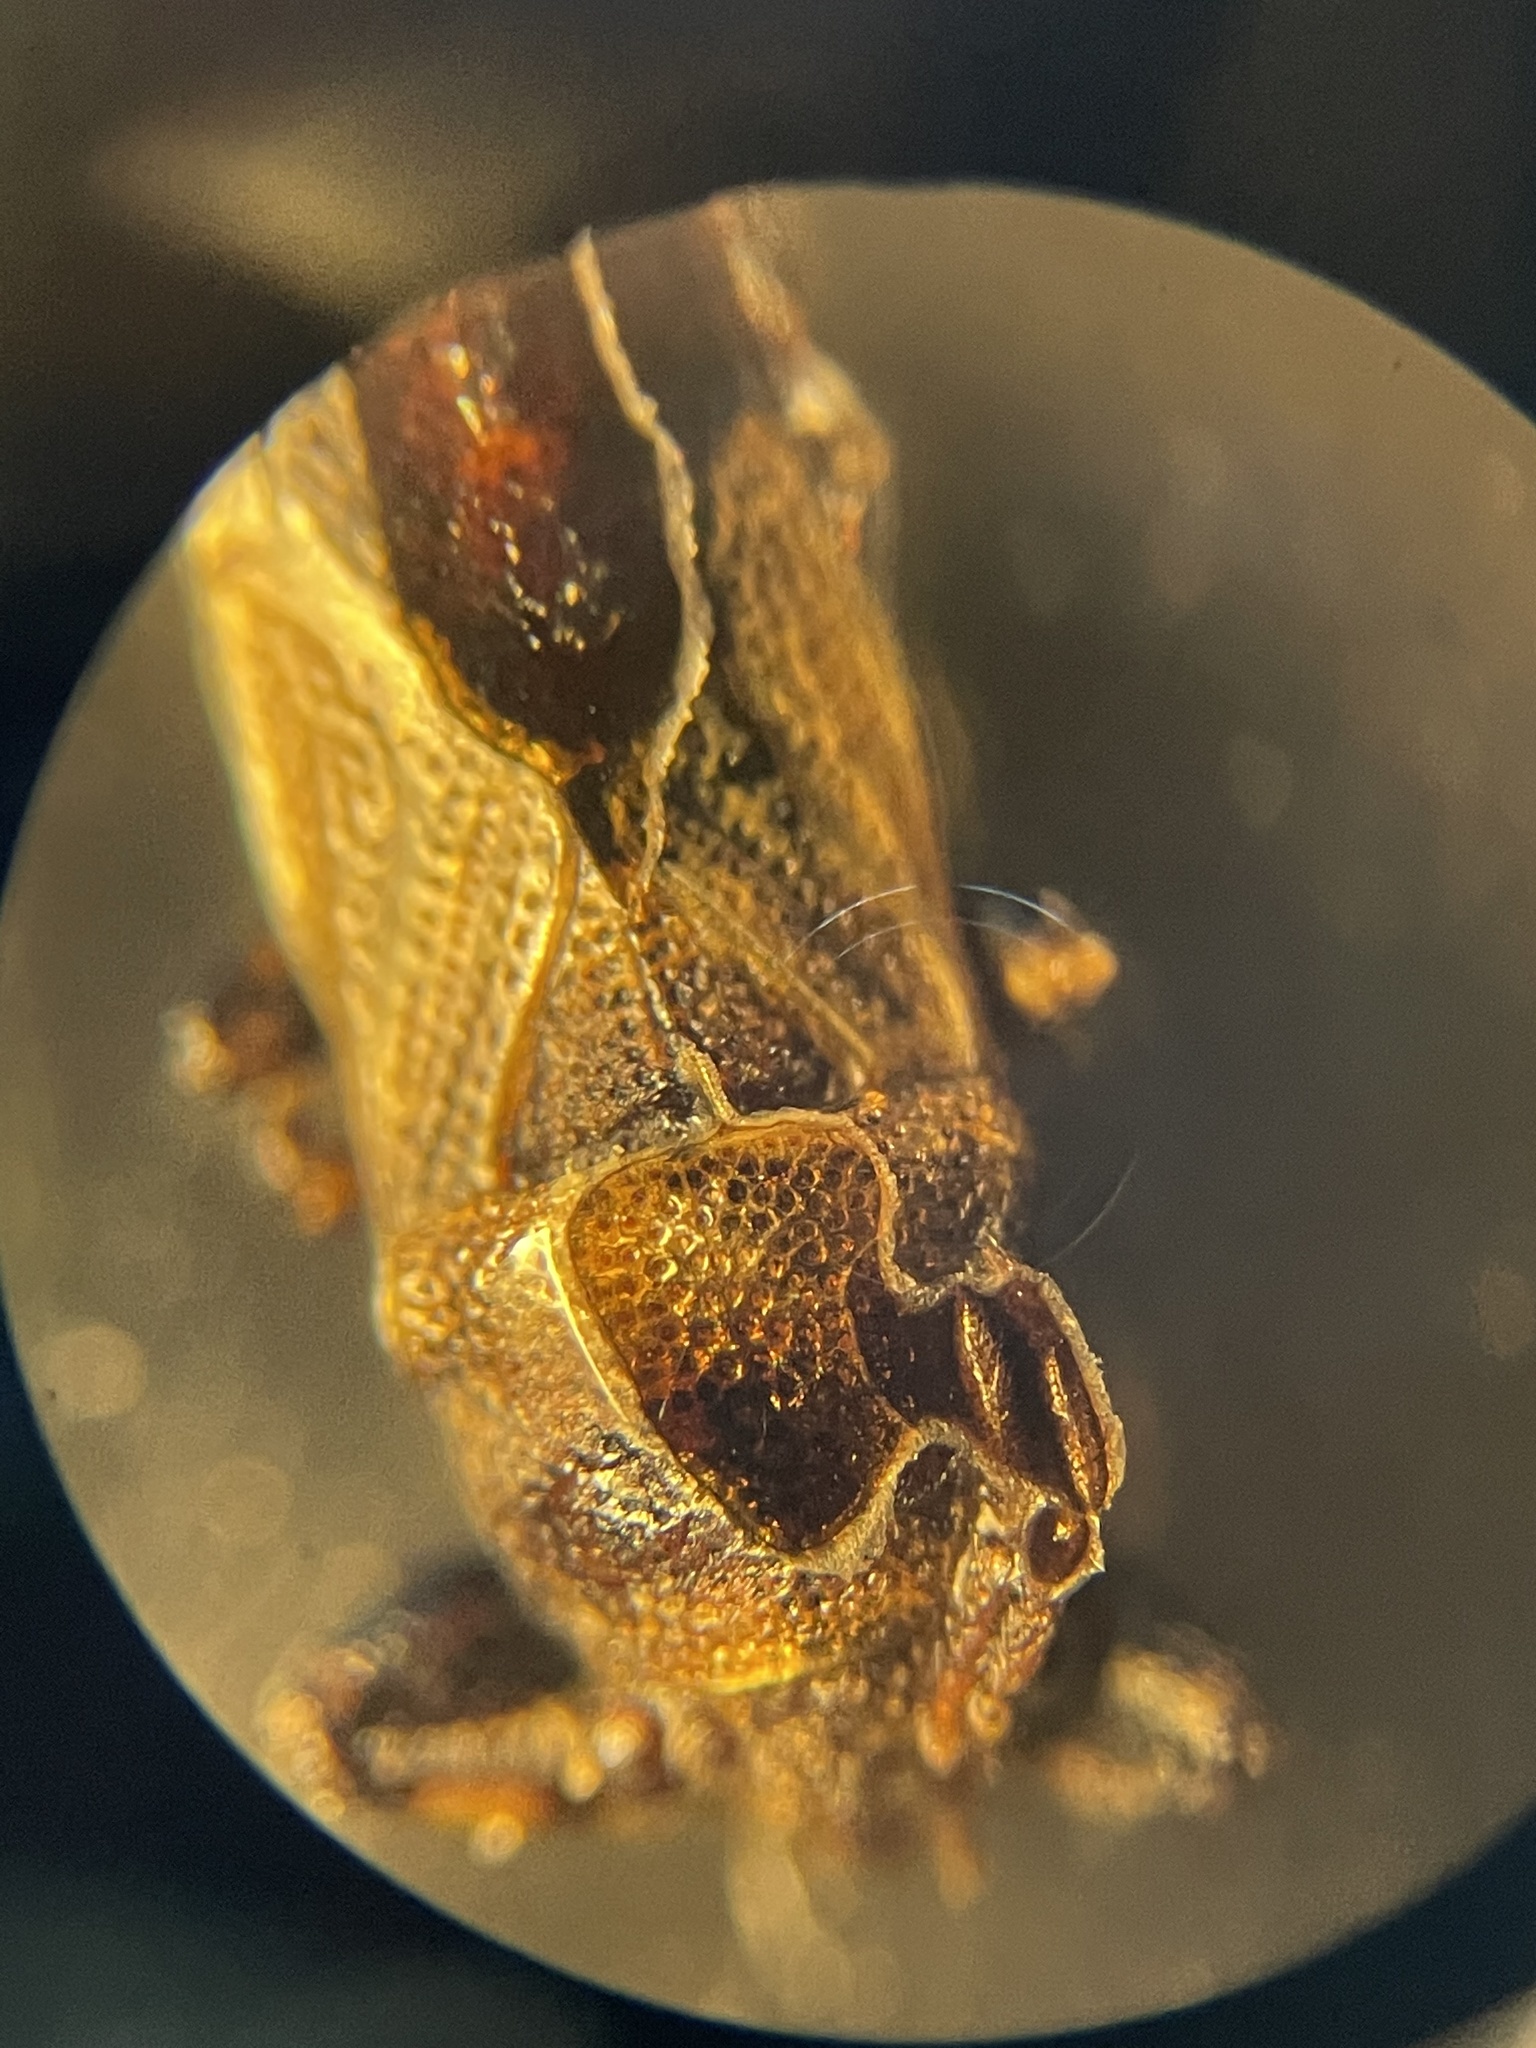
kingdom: Animalia
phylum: Arthropoda
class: Insecta
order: Hemiptera
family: Pachygronthidae
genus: Phlegyas
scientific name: Phlegyas annulicrus
